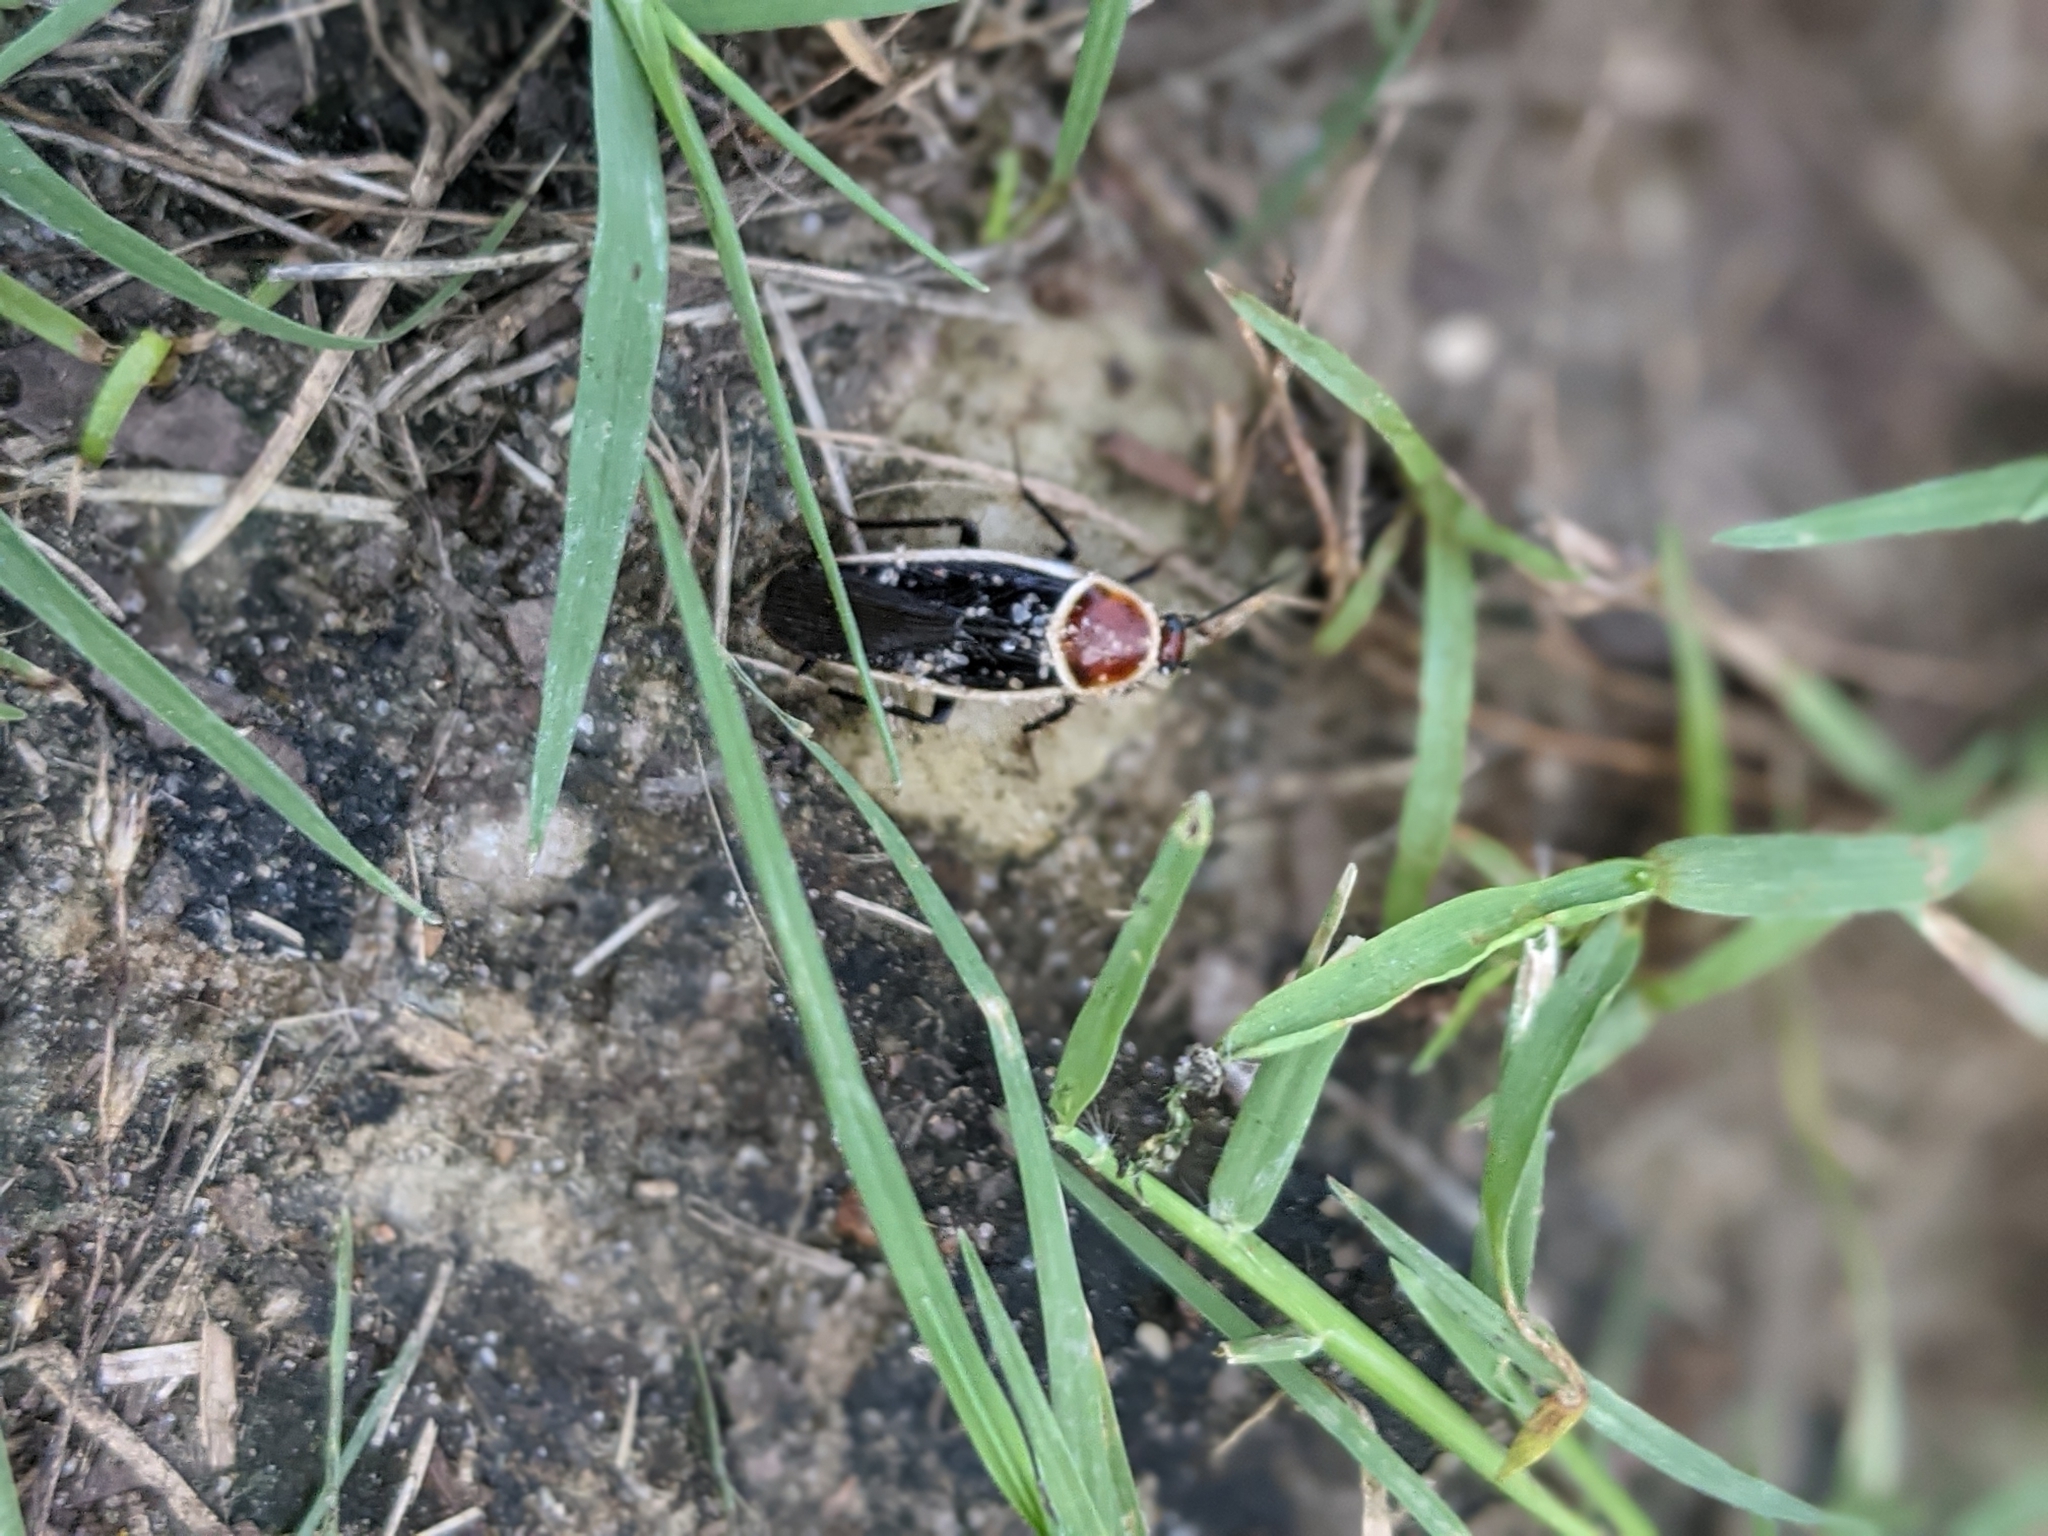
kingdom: Animalia
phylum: Arthropoda
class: Insecta
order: Blattodea
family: Ectobiidae
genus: Pseudomops
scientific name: Pseudomops septentrionalis
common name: Pale-bordered field cockroach
